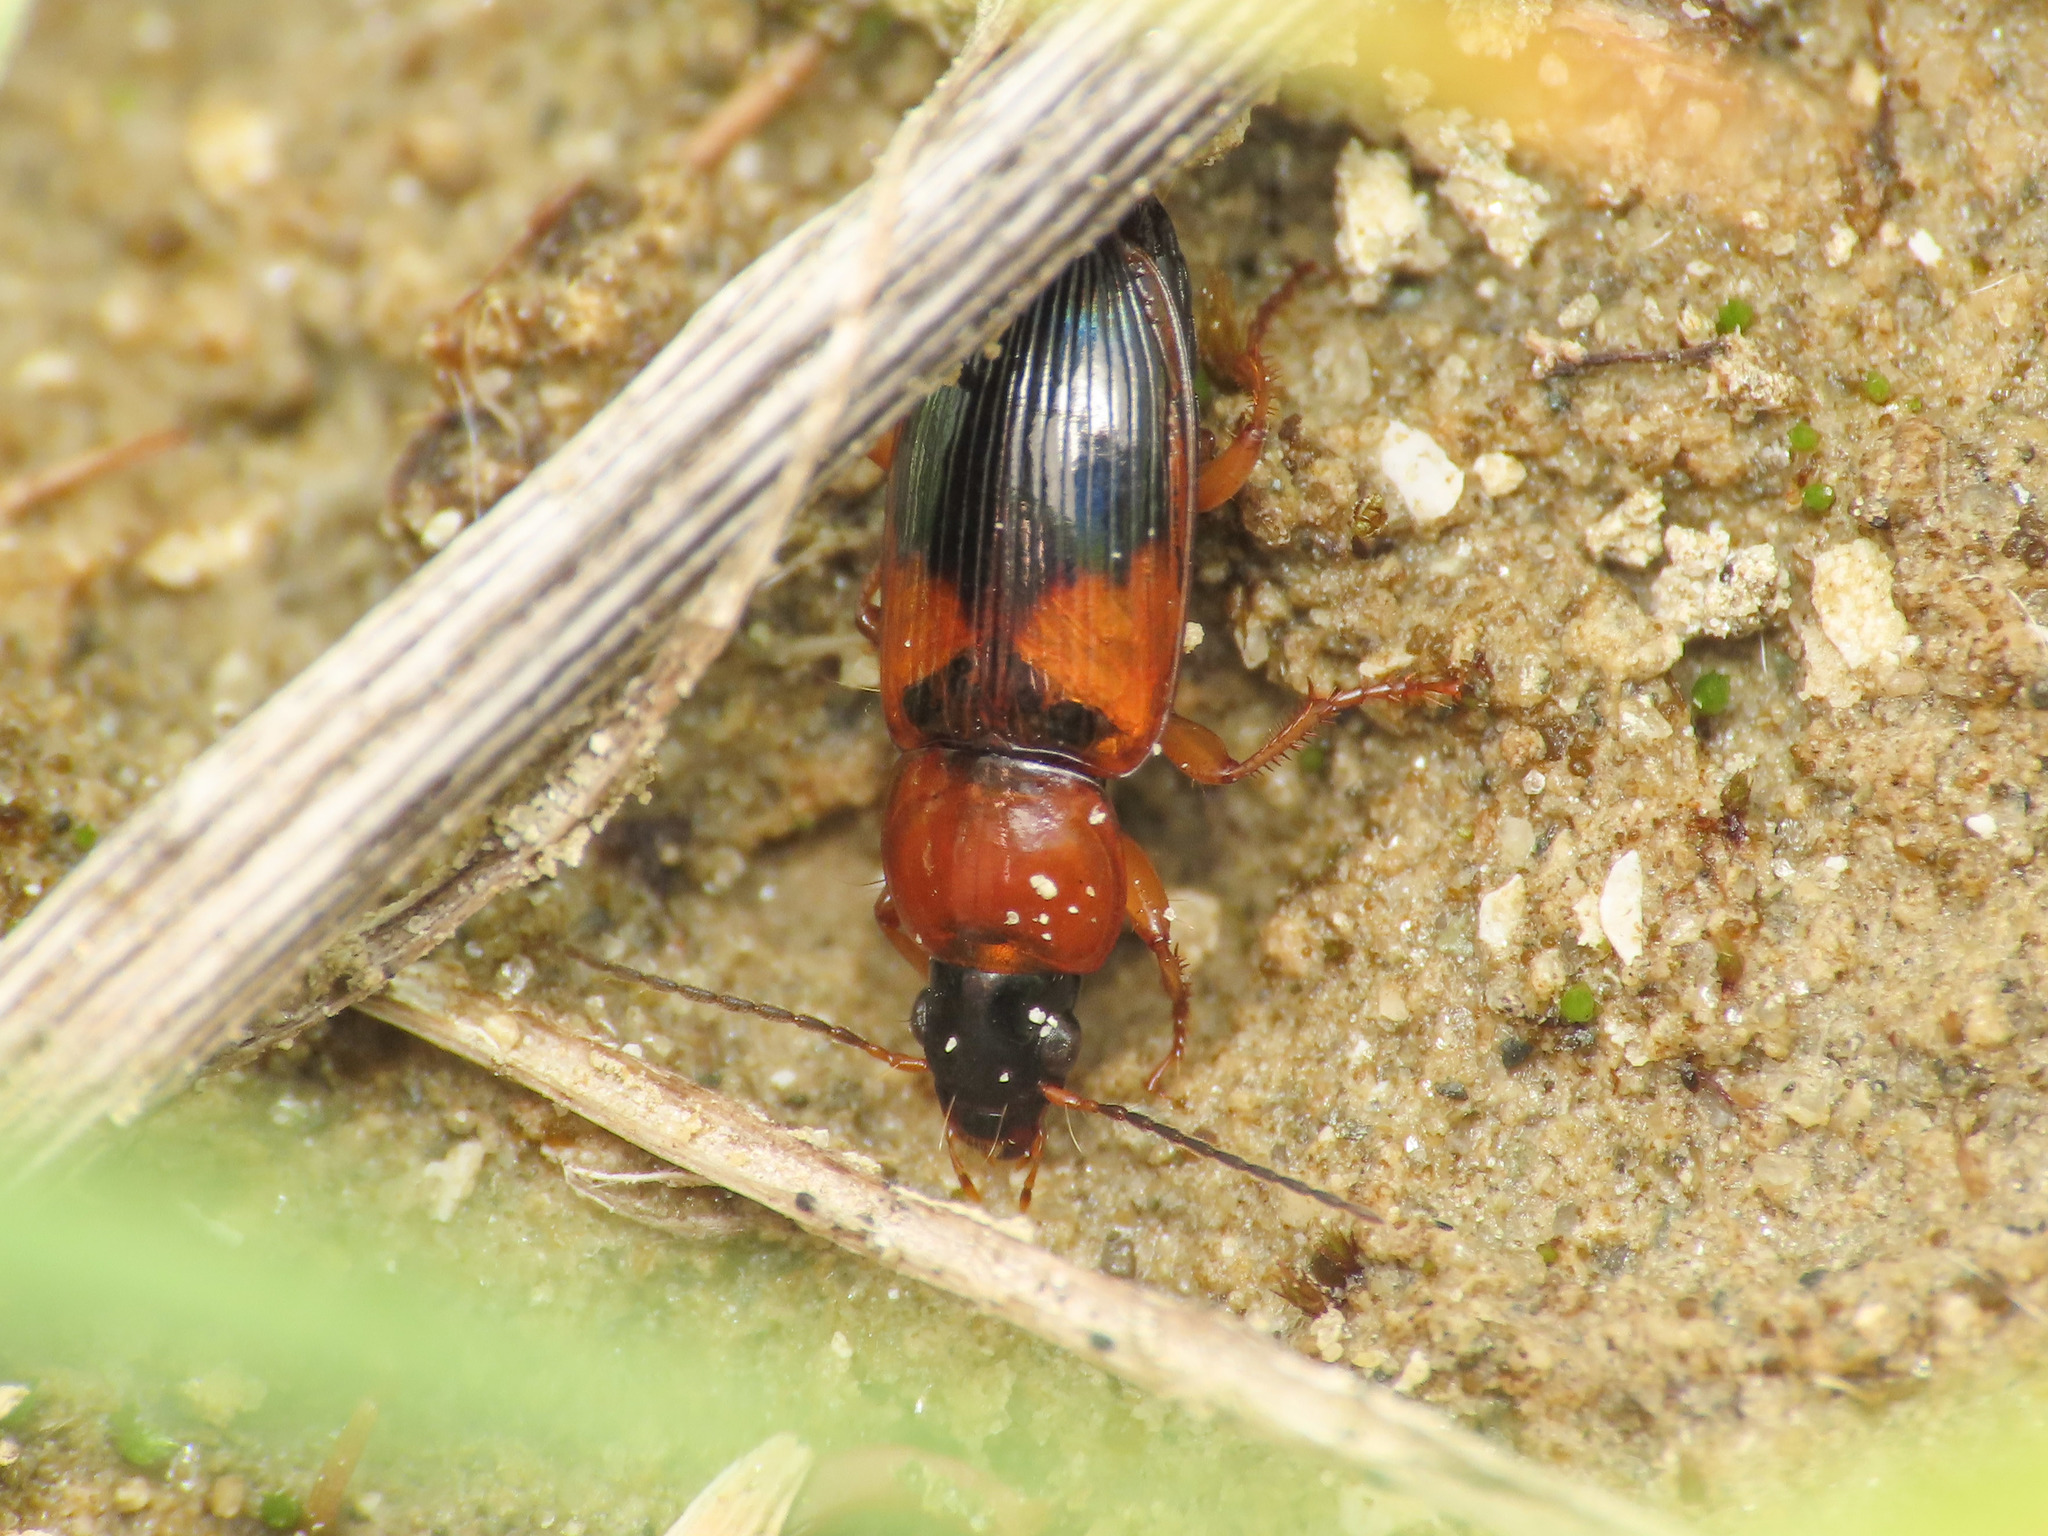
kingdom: Animalia
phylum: Arthropoda
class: Insecta
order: Coleoptera
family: Carabidae
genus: Stenolophus
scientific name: Stenolophus teutonus
